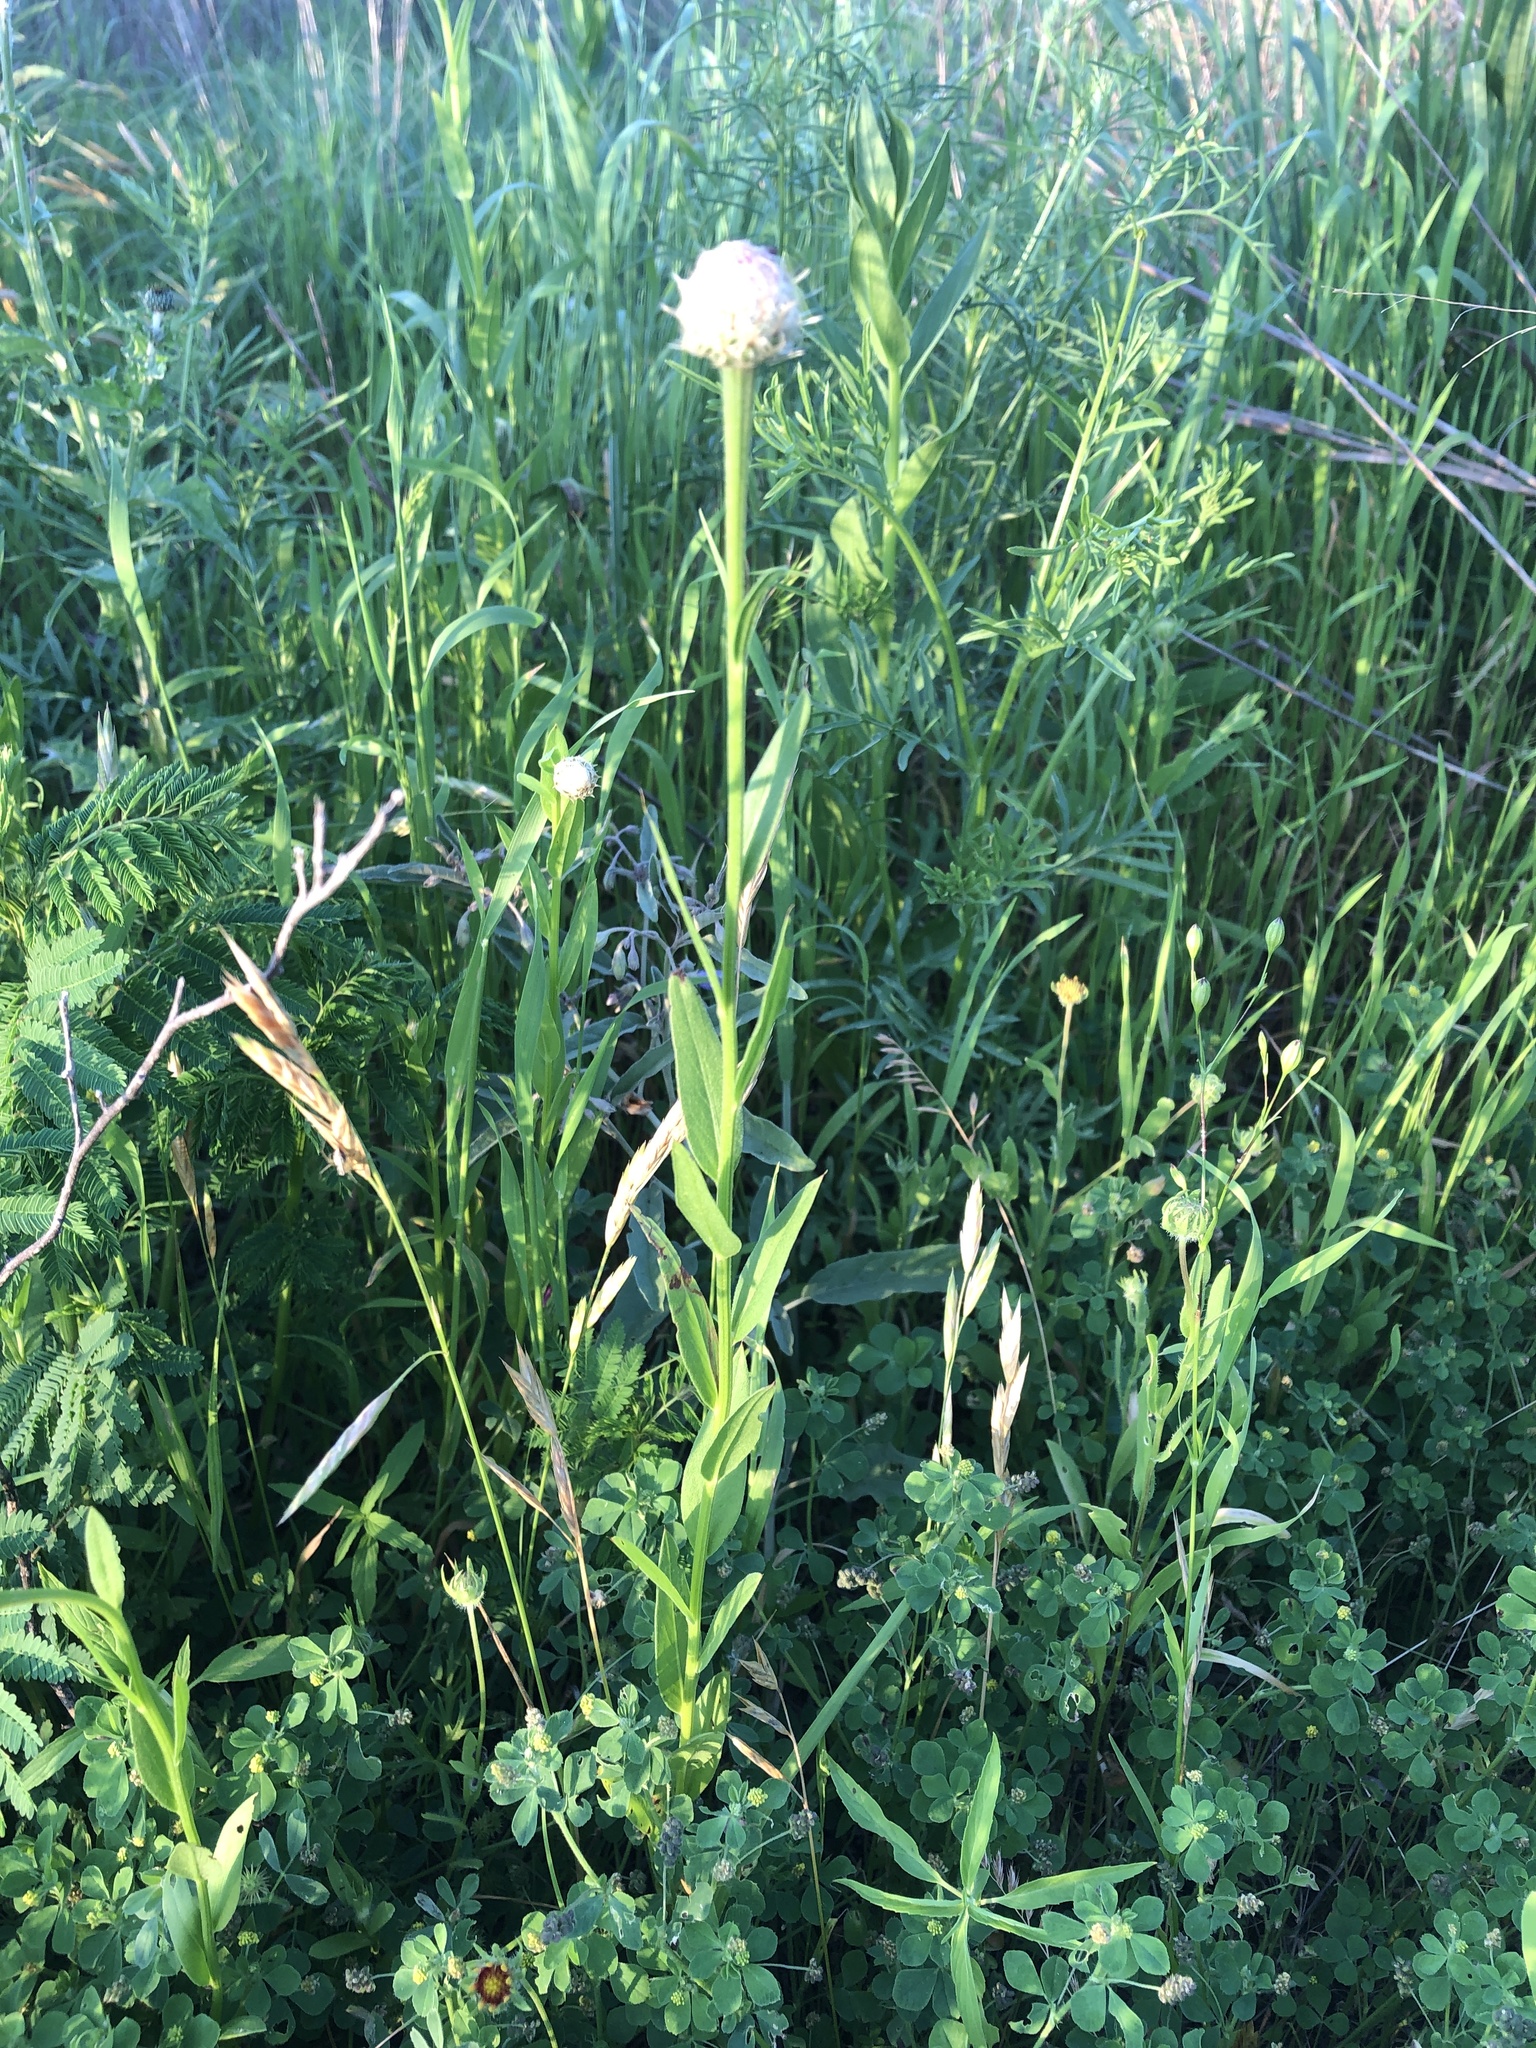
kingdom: Plantae
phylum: Tracheophyta
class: Magnoliopsida
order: Asterales
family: Asteraceae
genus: Plectocephalus
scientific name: Plectocephalus americanus
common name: American basket-flower
